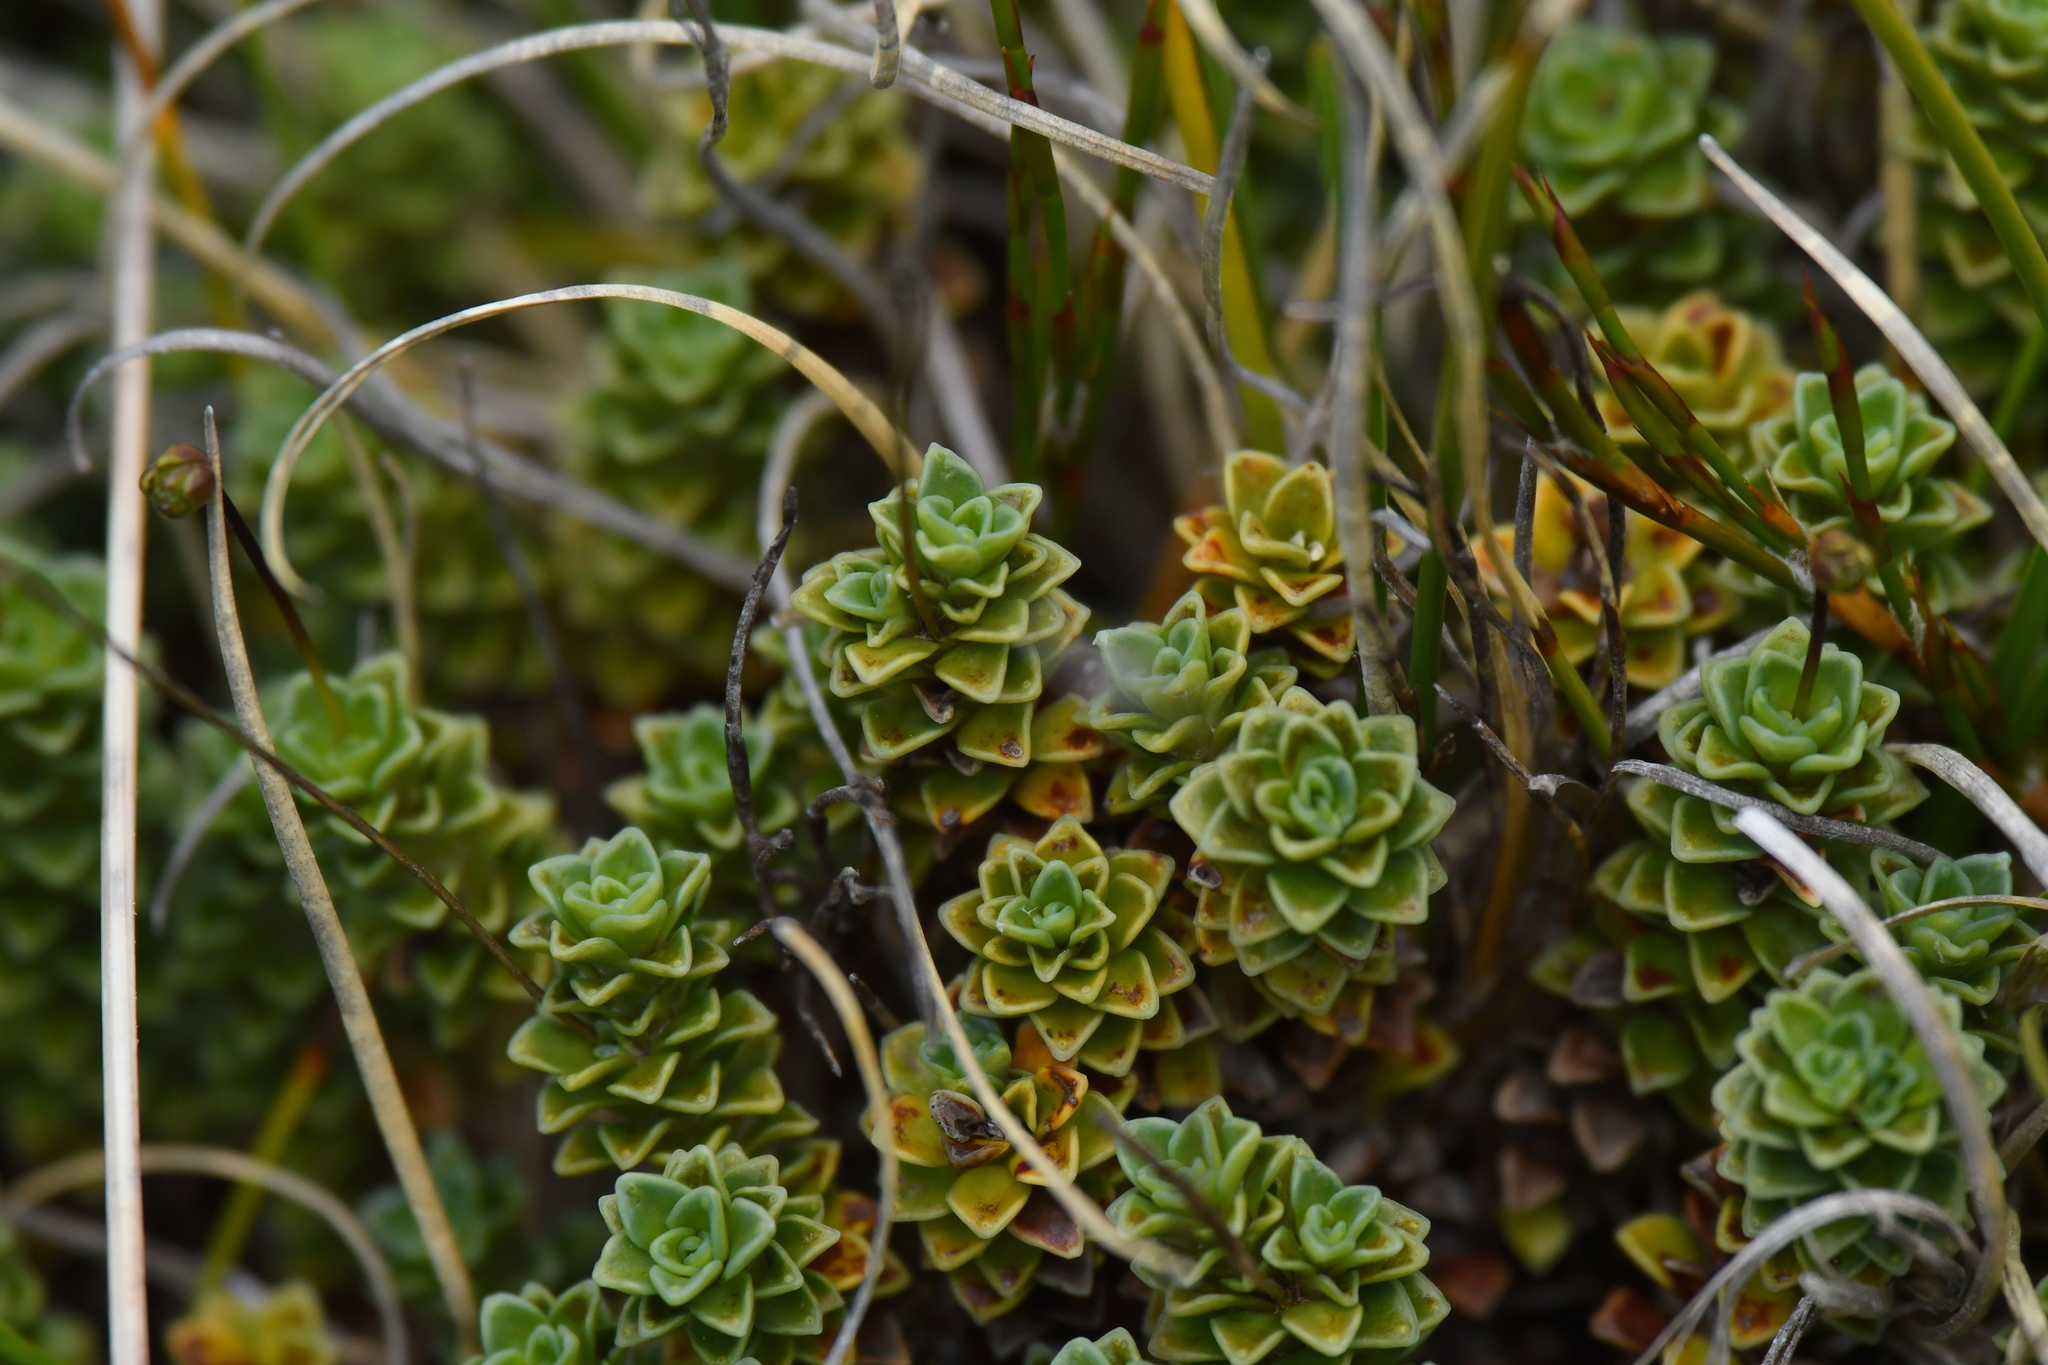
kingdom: Plantae
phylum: Tracheophyta
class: Magnoliopsida
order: Asterales
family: Stylidiaceae
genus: Forstera
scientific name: Forstera sedifolia
